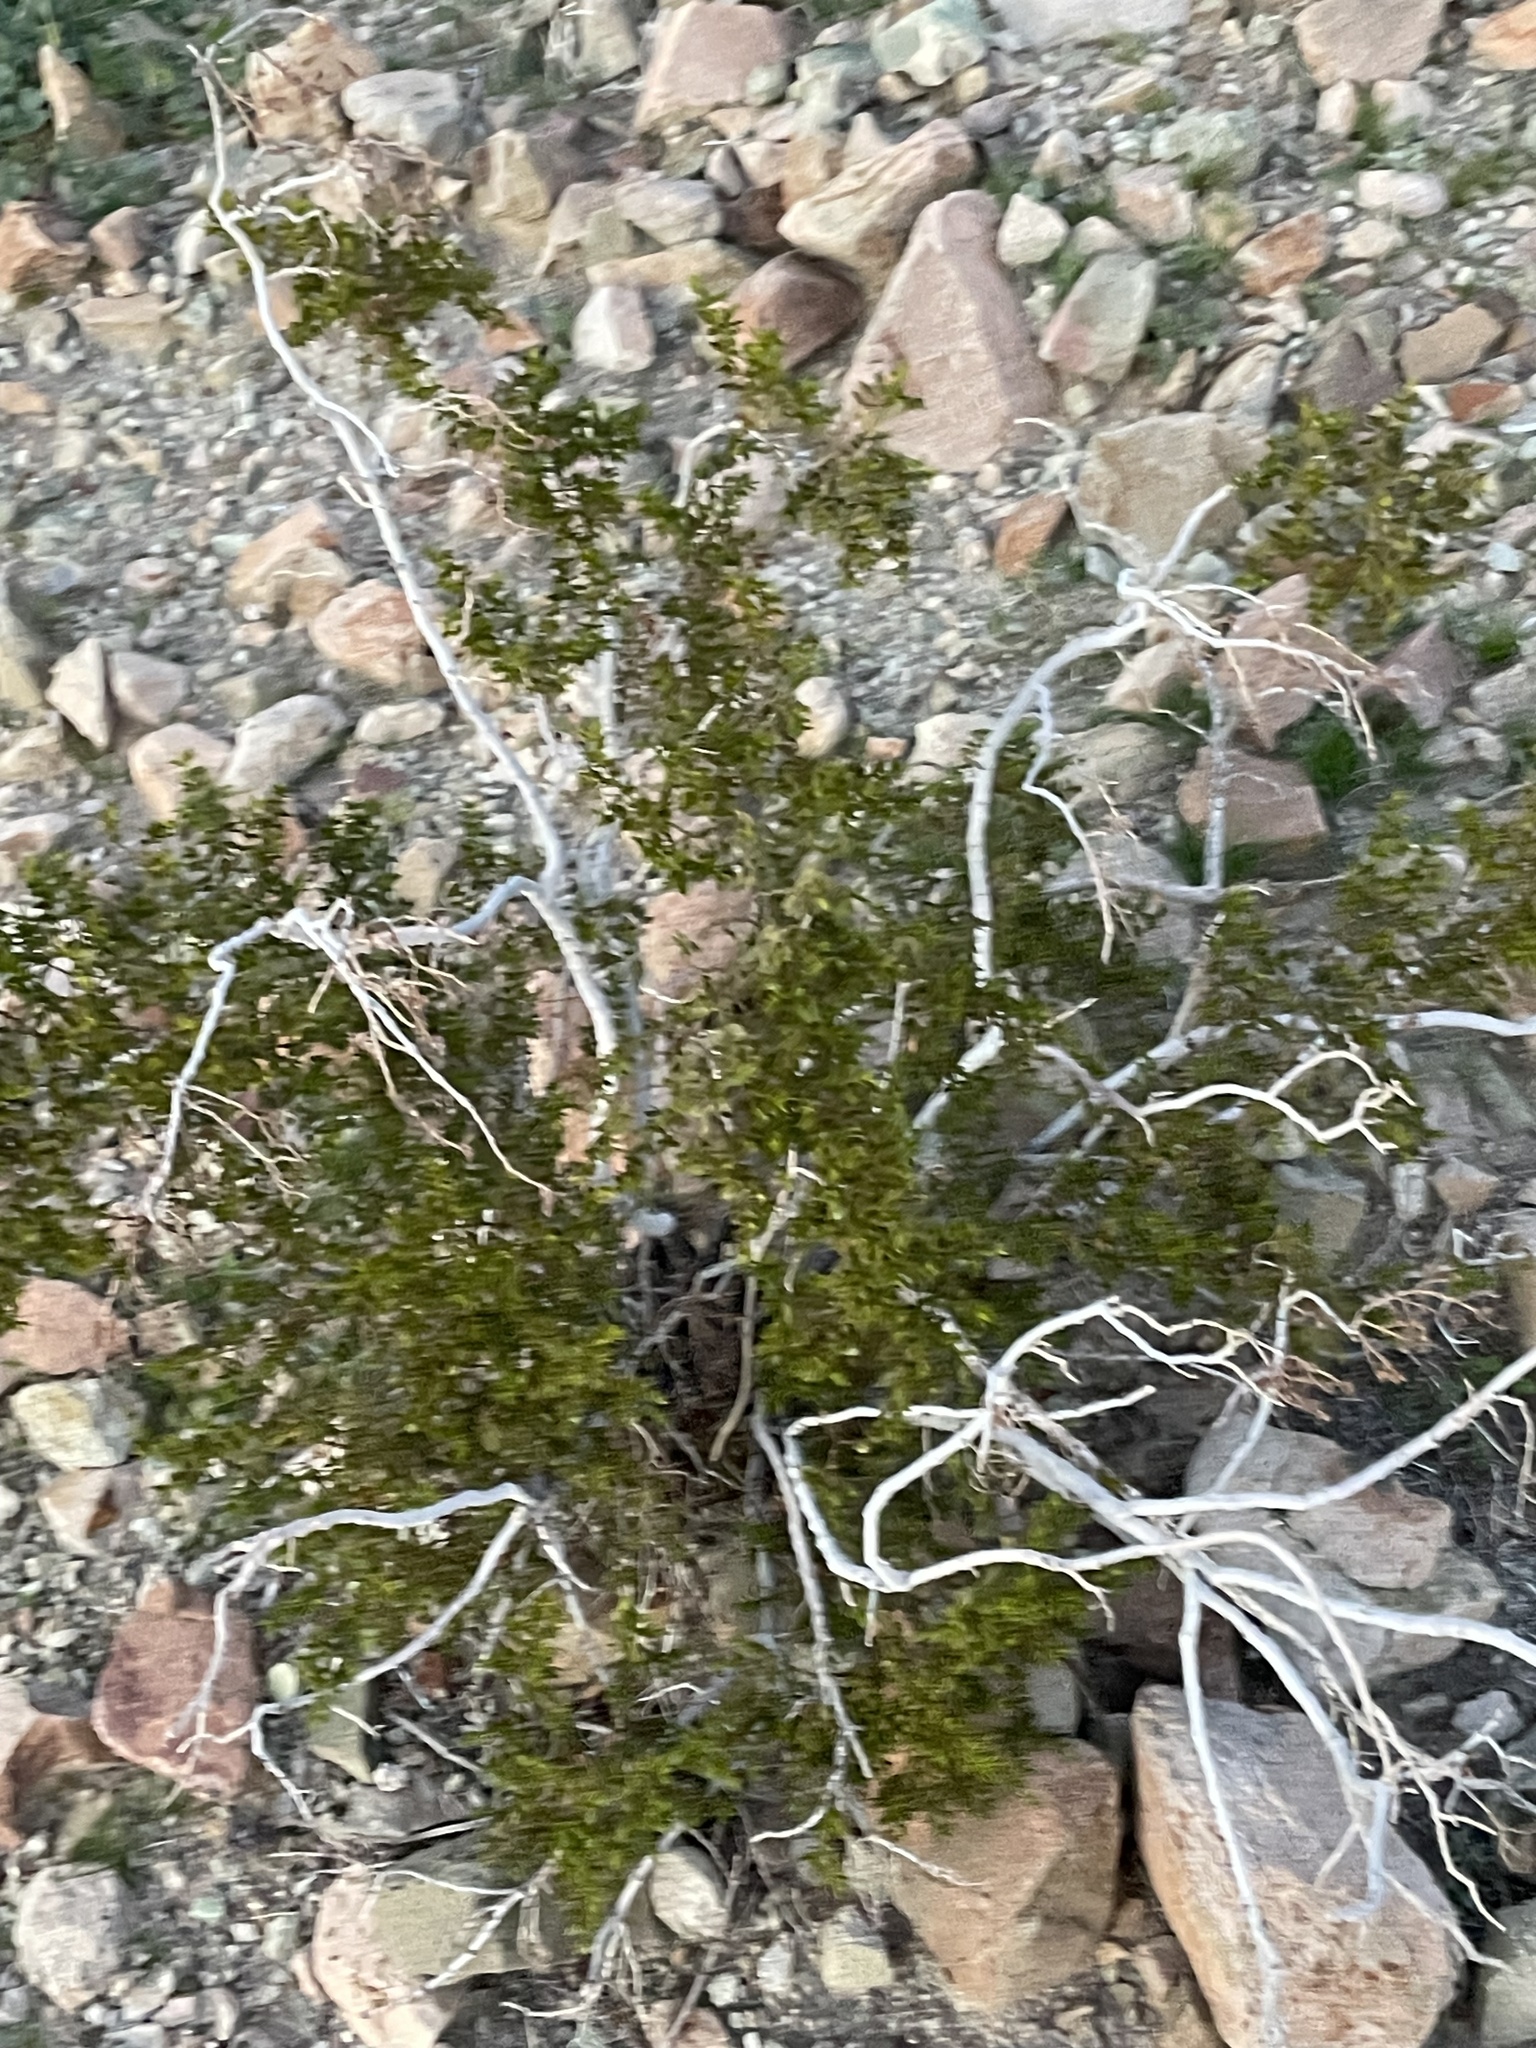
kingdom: Plantae
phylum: Tracheophyta
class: Magnoliopsida
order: Zygophyllales
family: Zygophyllaceae
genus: Larrea
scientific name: Larrea tridentata
